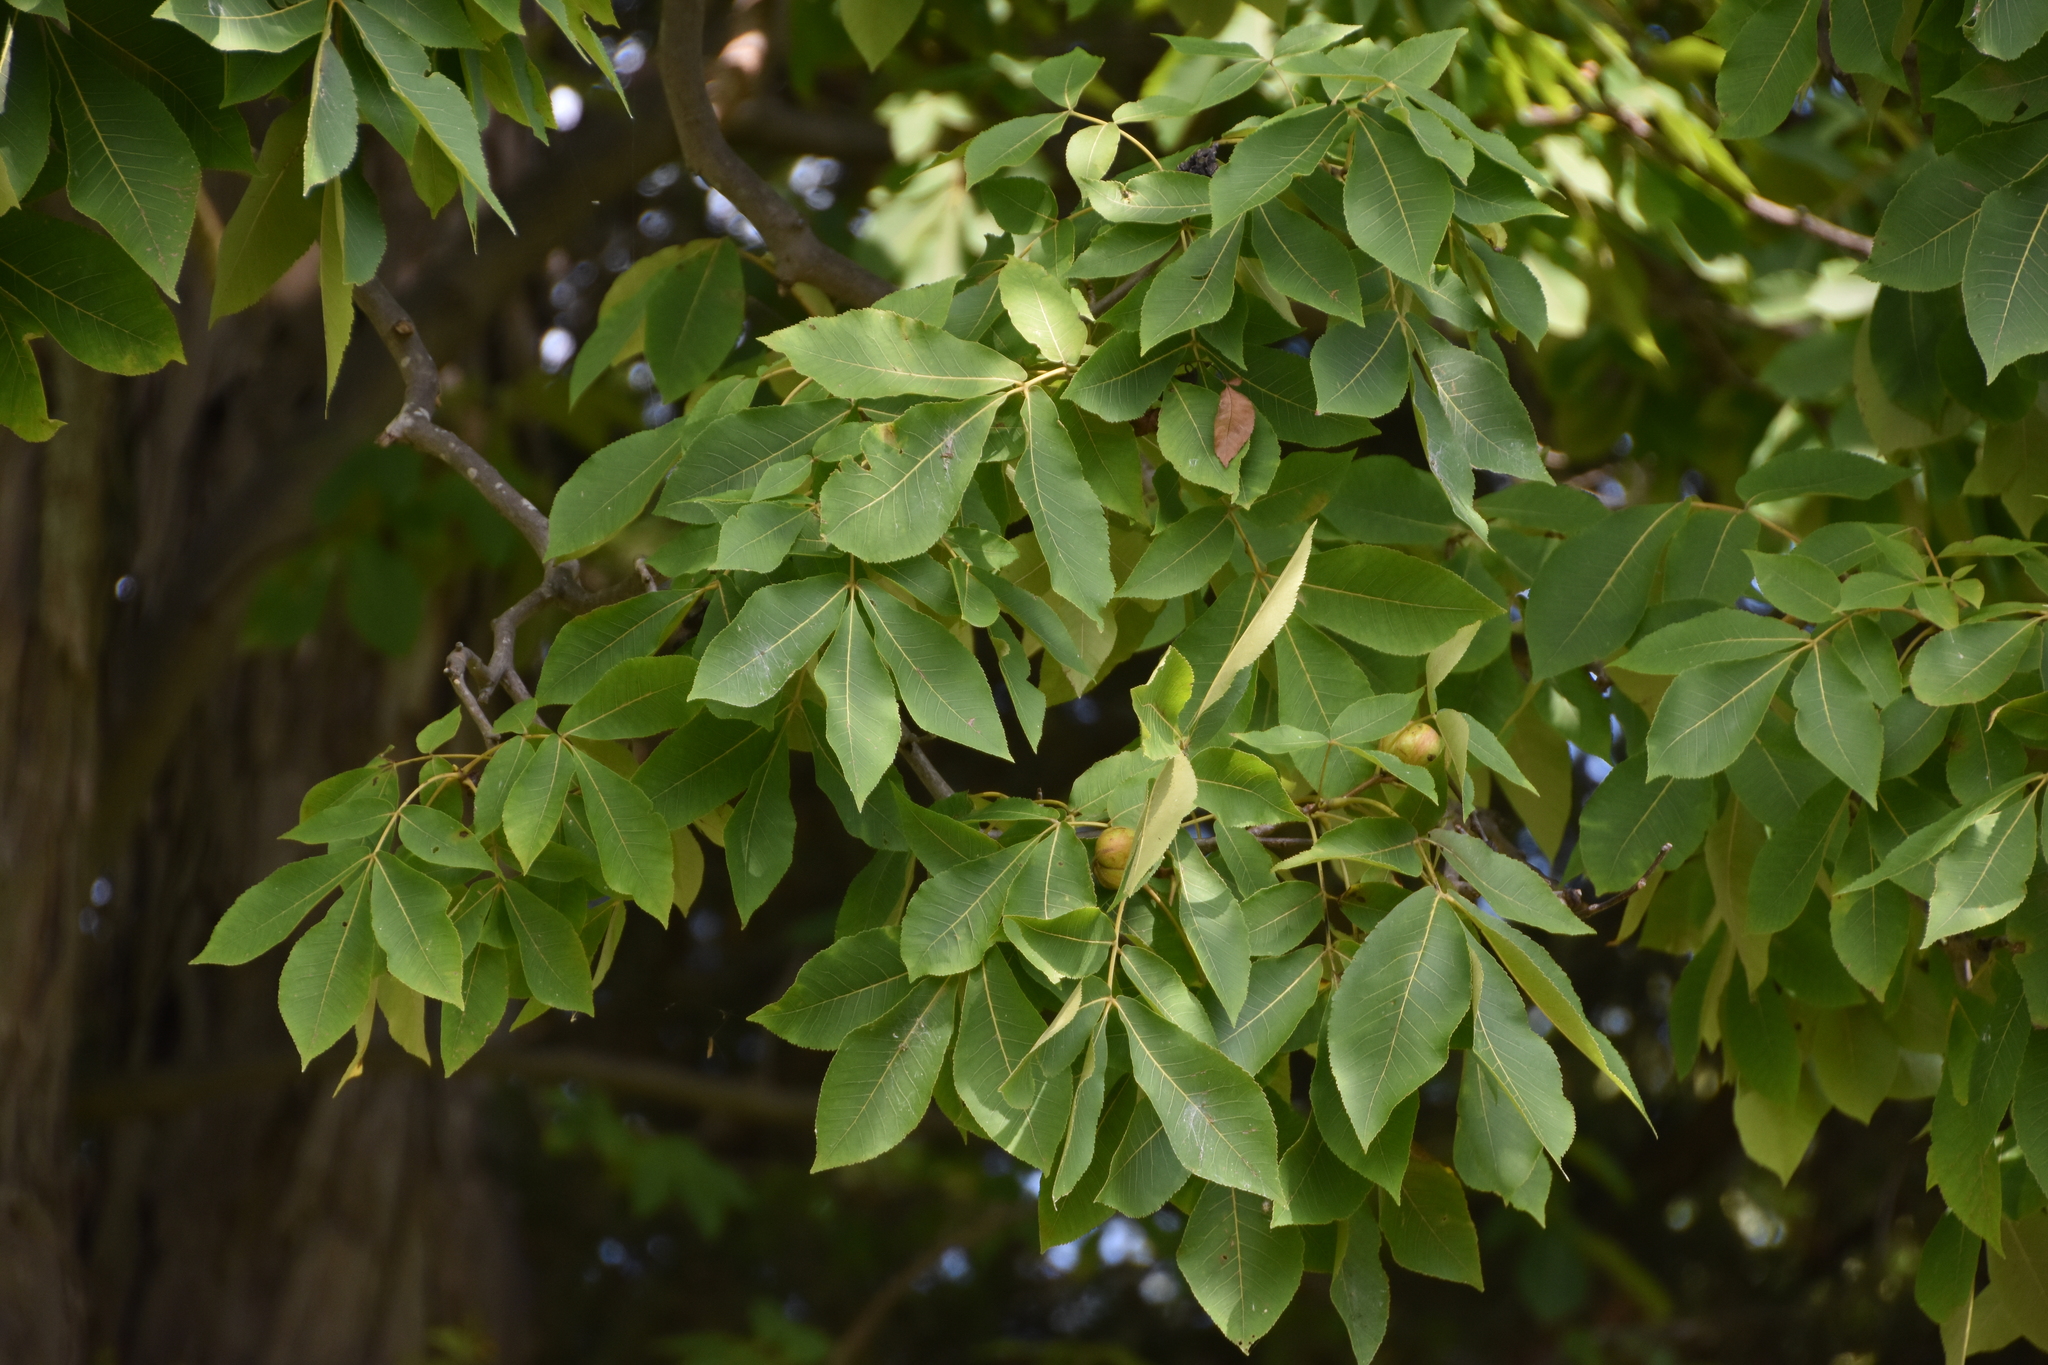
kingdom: Plantae
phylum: Tracheophyta
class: Magnoliopsida
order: Fagales
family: Juglandaceae
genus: Carya
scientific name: Carya ovata
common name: Shagbark hickory
